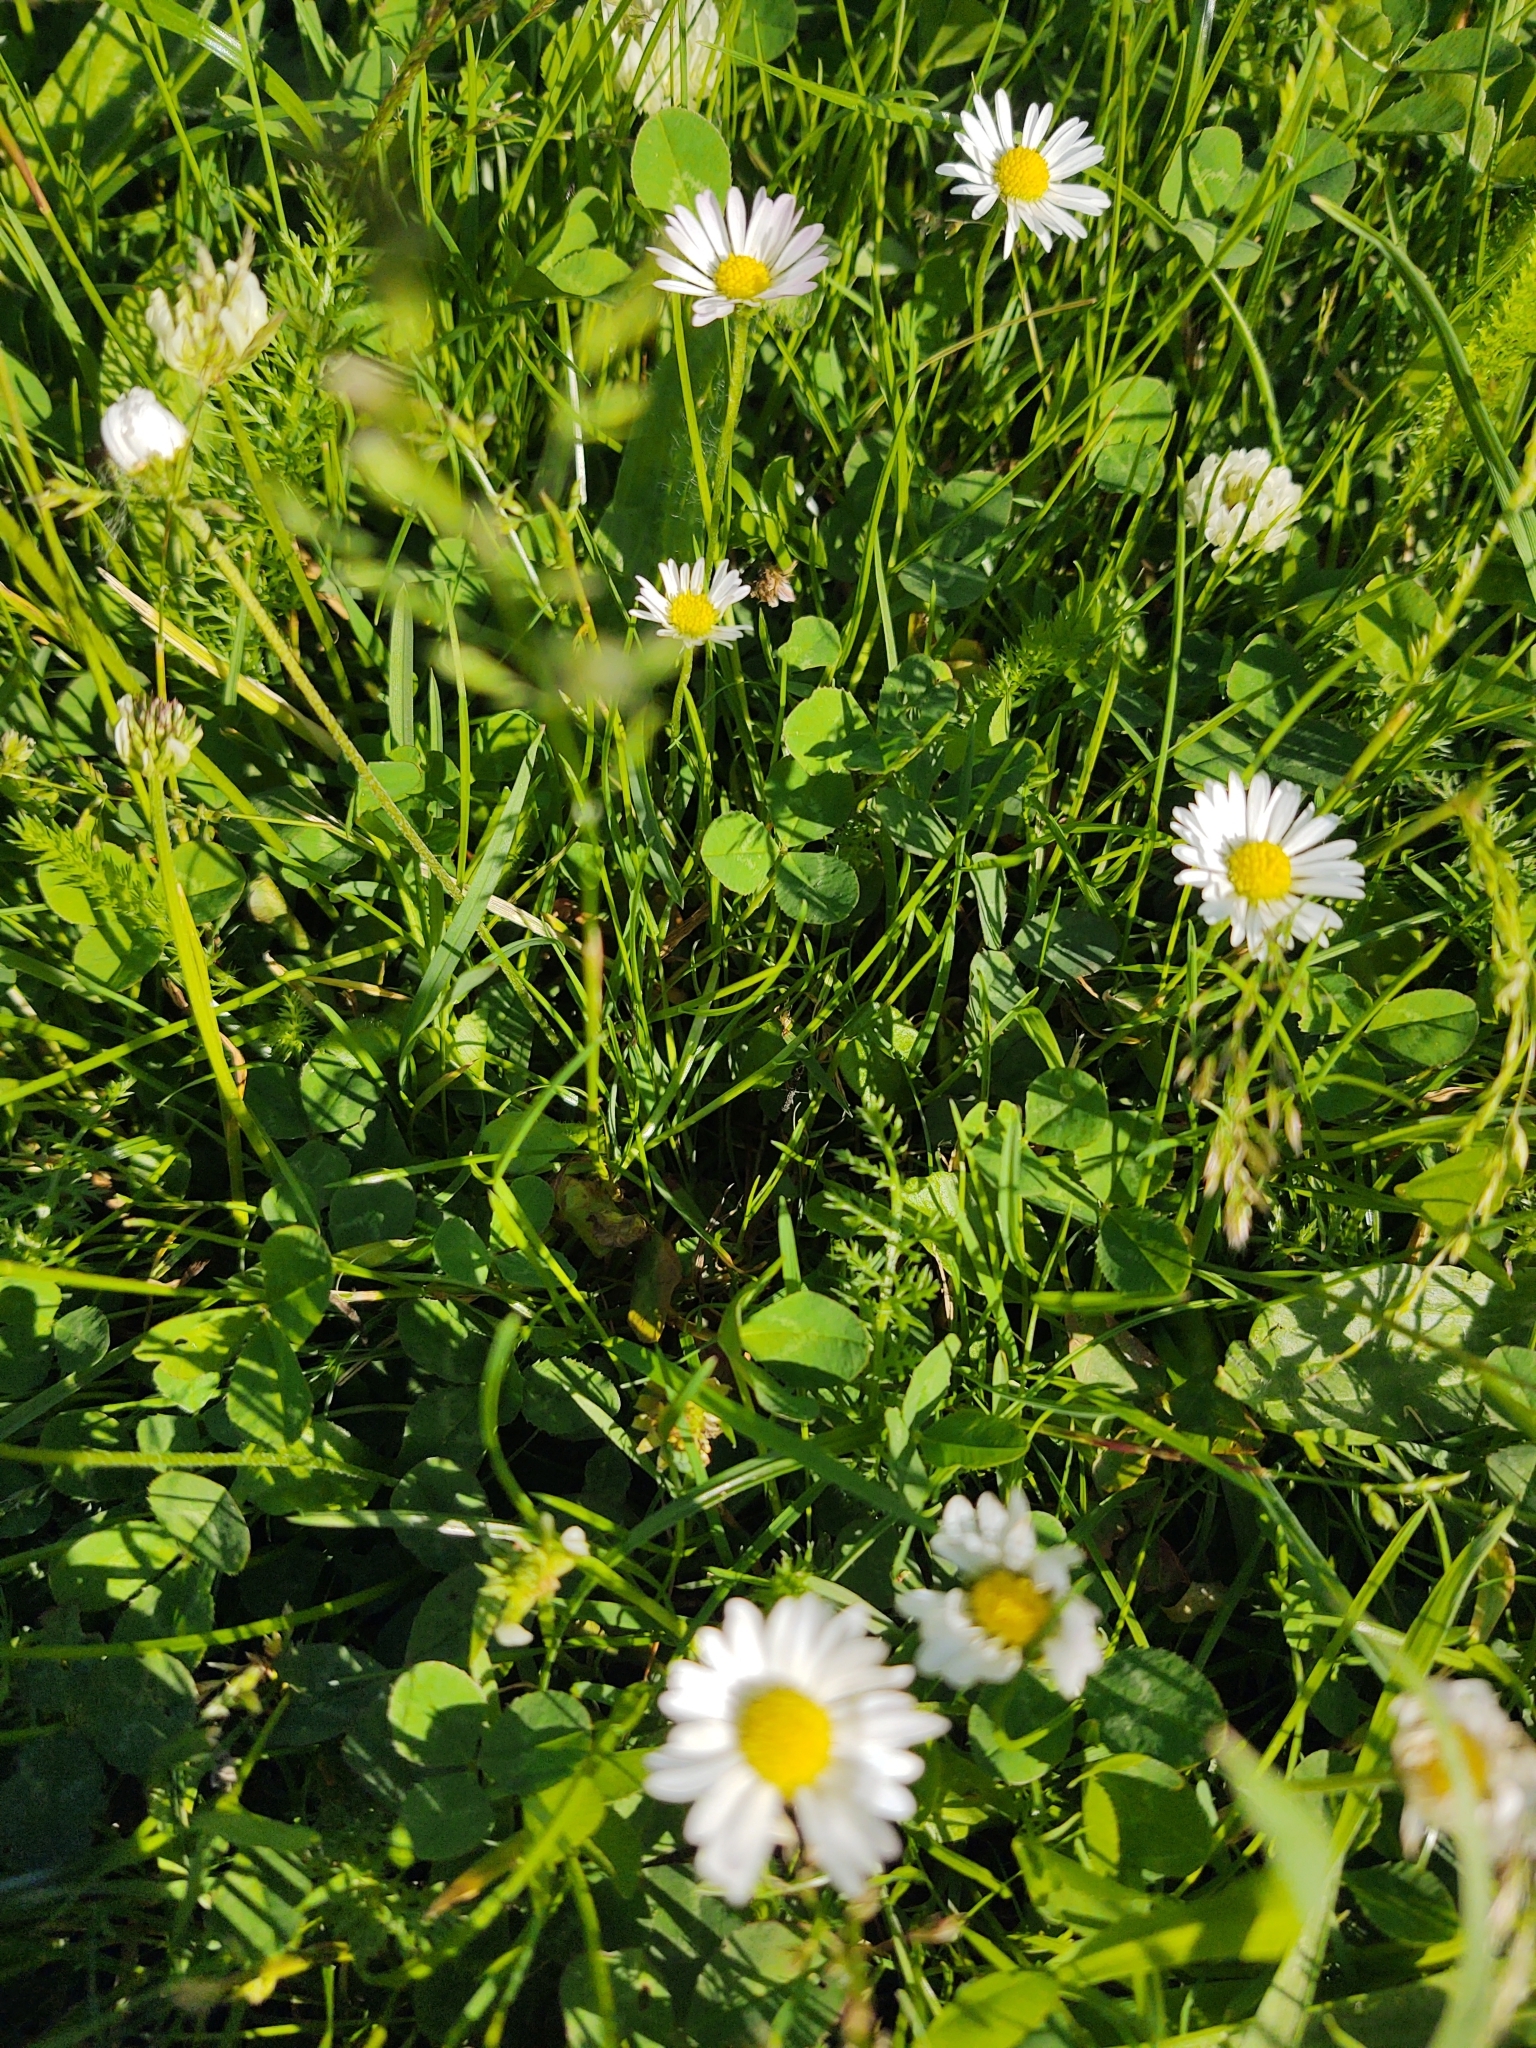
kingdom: Plantae
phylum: Tracheophyta
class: Magnoliopsida
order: Asterales
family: Asteraceae
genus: Bellis
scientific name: Bellis perennis
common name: Lawndaisy
